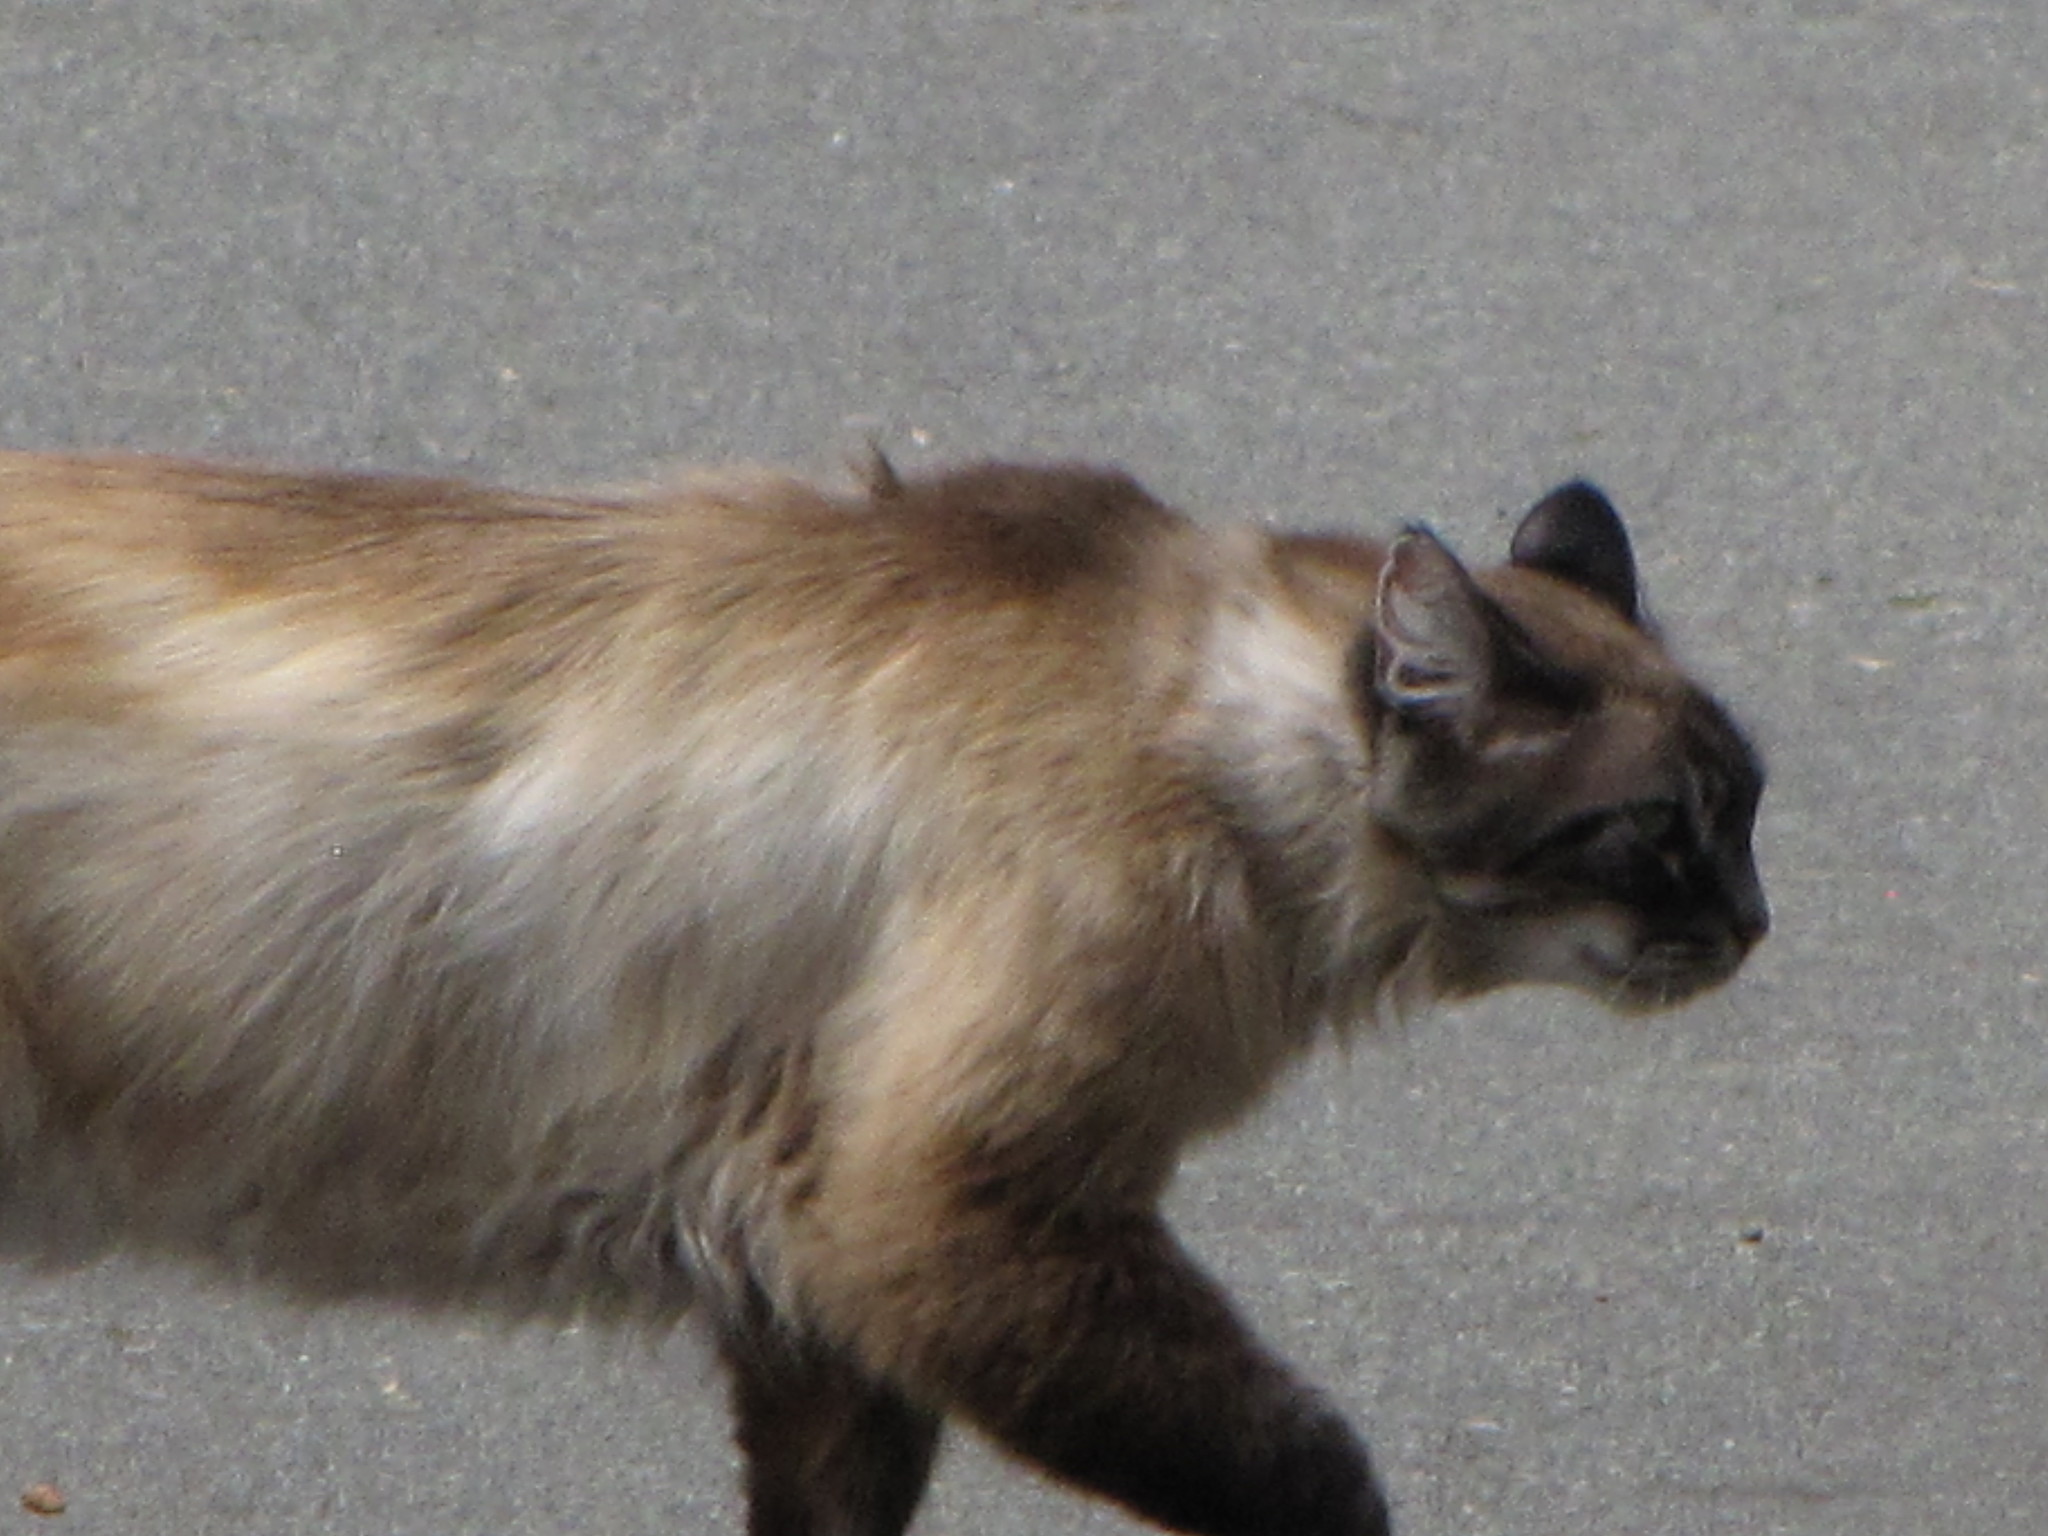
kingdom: Animalia
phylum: Chordata
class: Mammalia
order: Carnivora
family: Felidae
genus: Felis
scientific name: Felis catus
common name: Domestic cat
